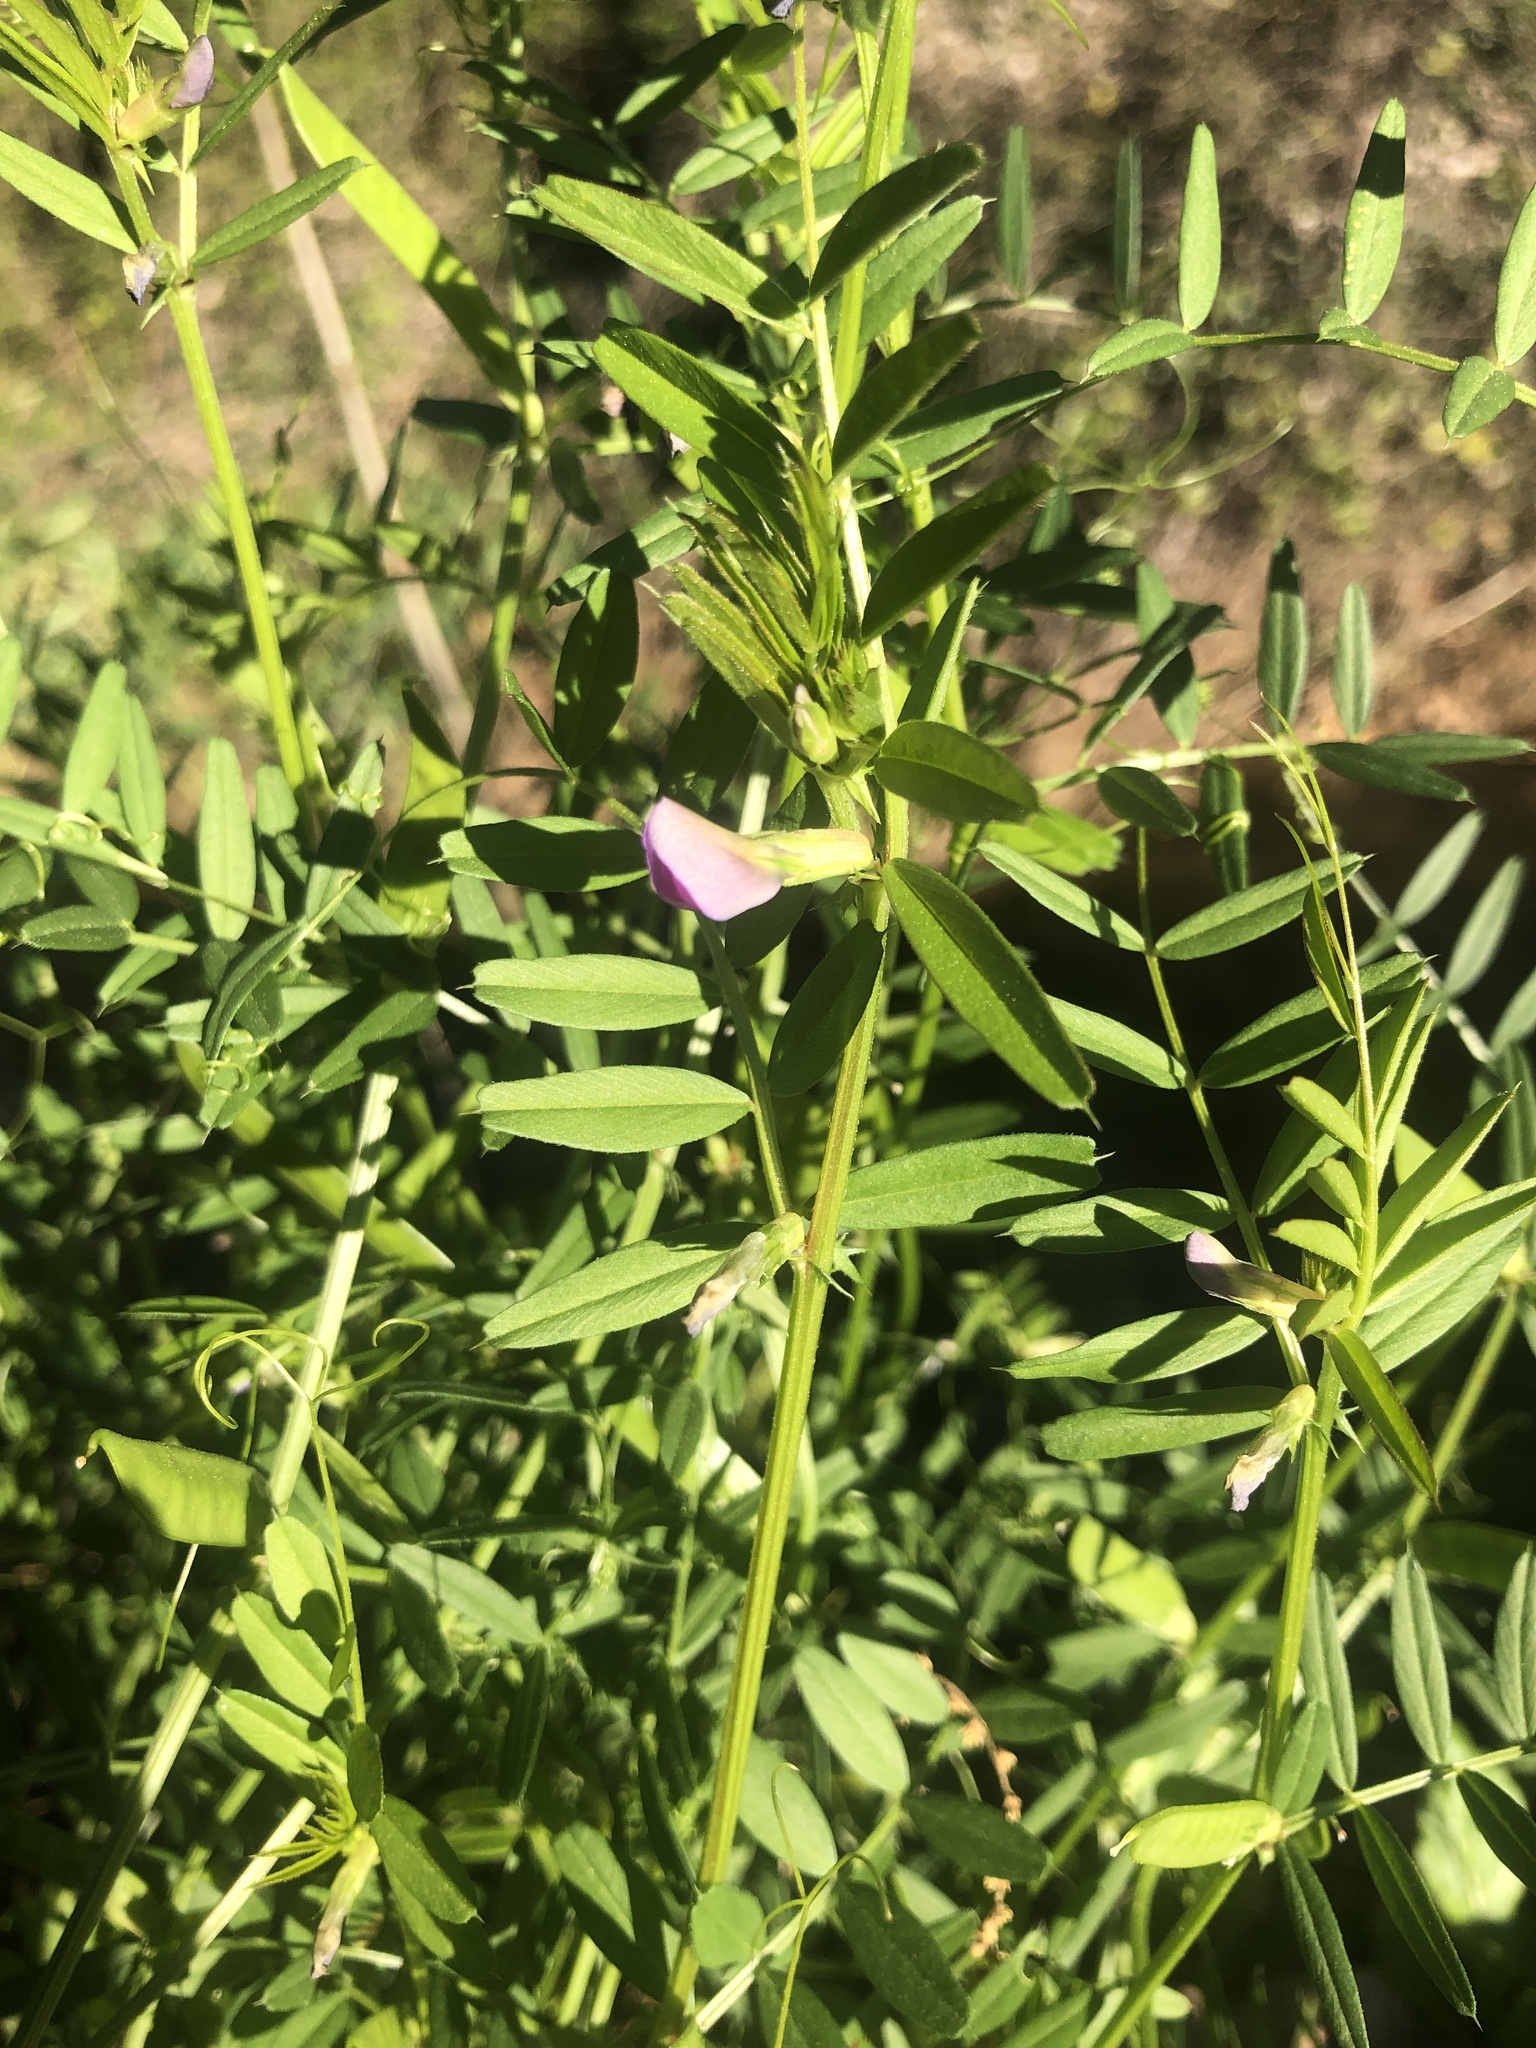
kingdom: Plantae
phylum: Tracheophyta
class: Magnoliopsida
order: Fabales
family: Fabaceae
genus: Vicia
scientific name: Vicia sativa
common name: Garden vetch
